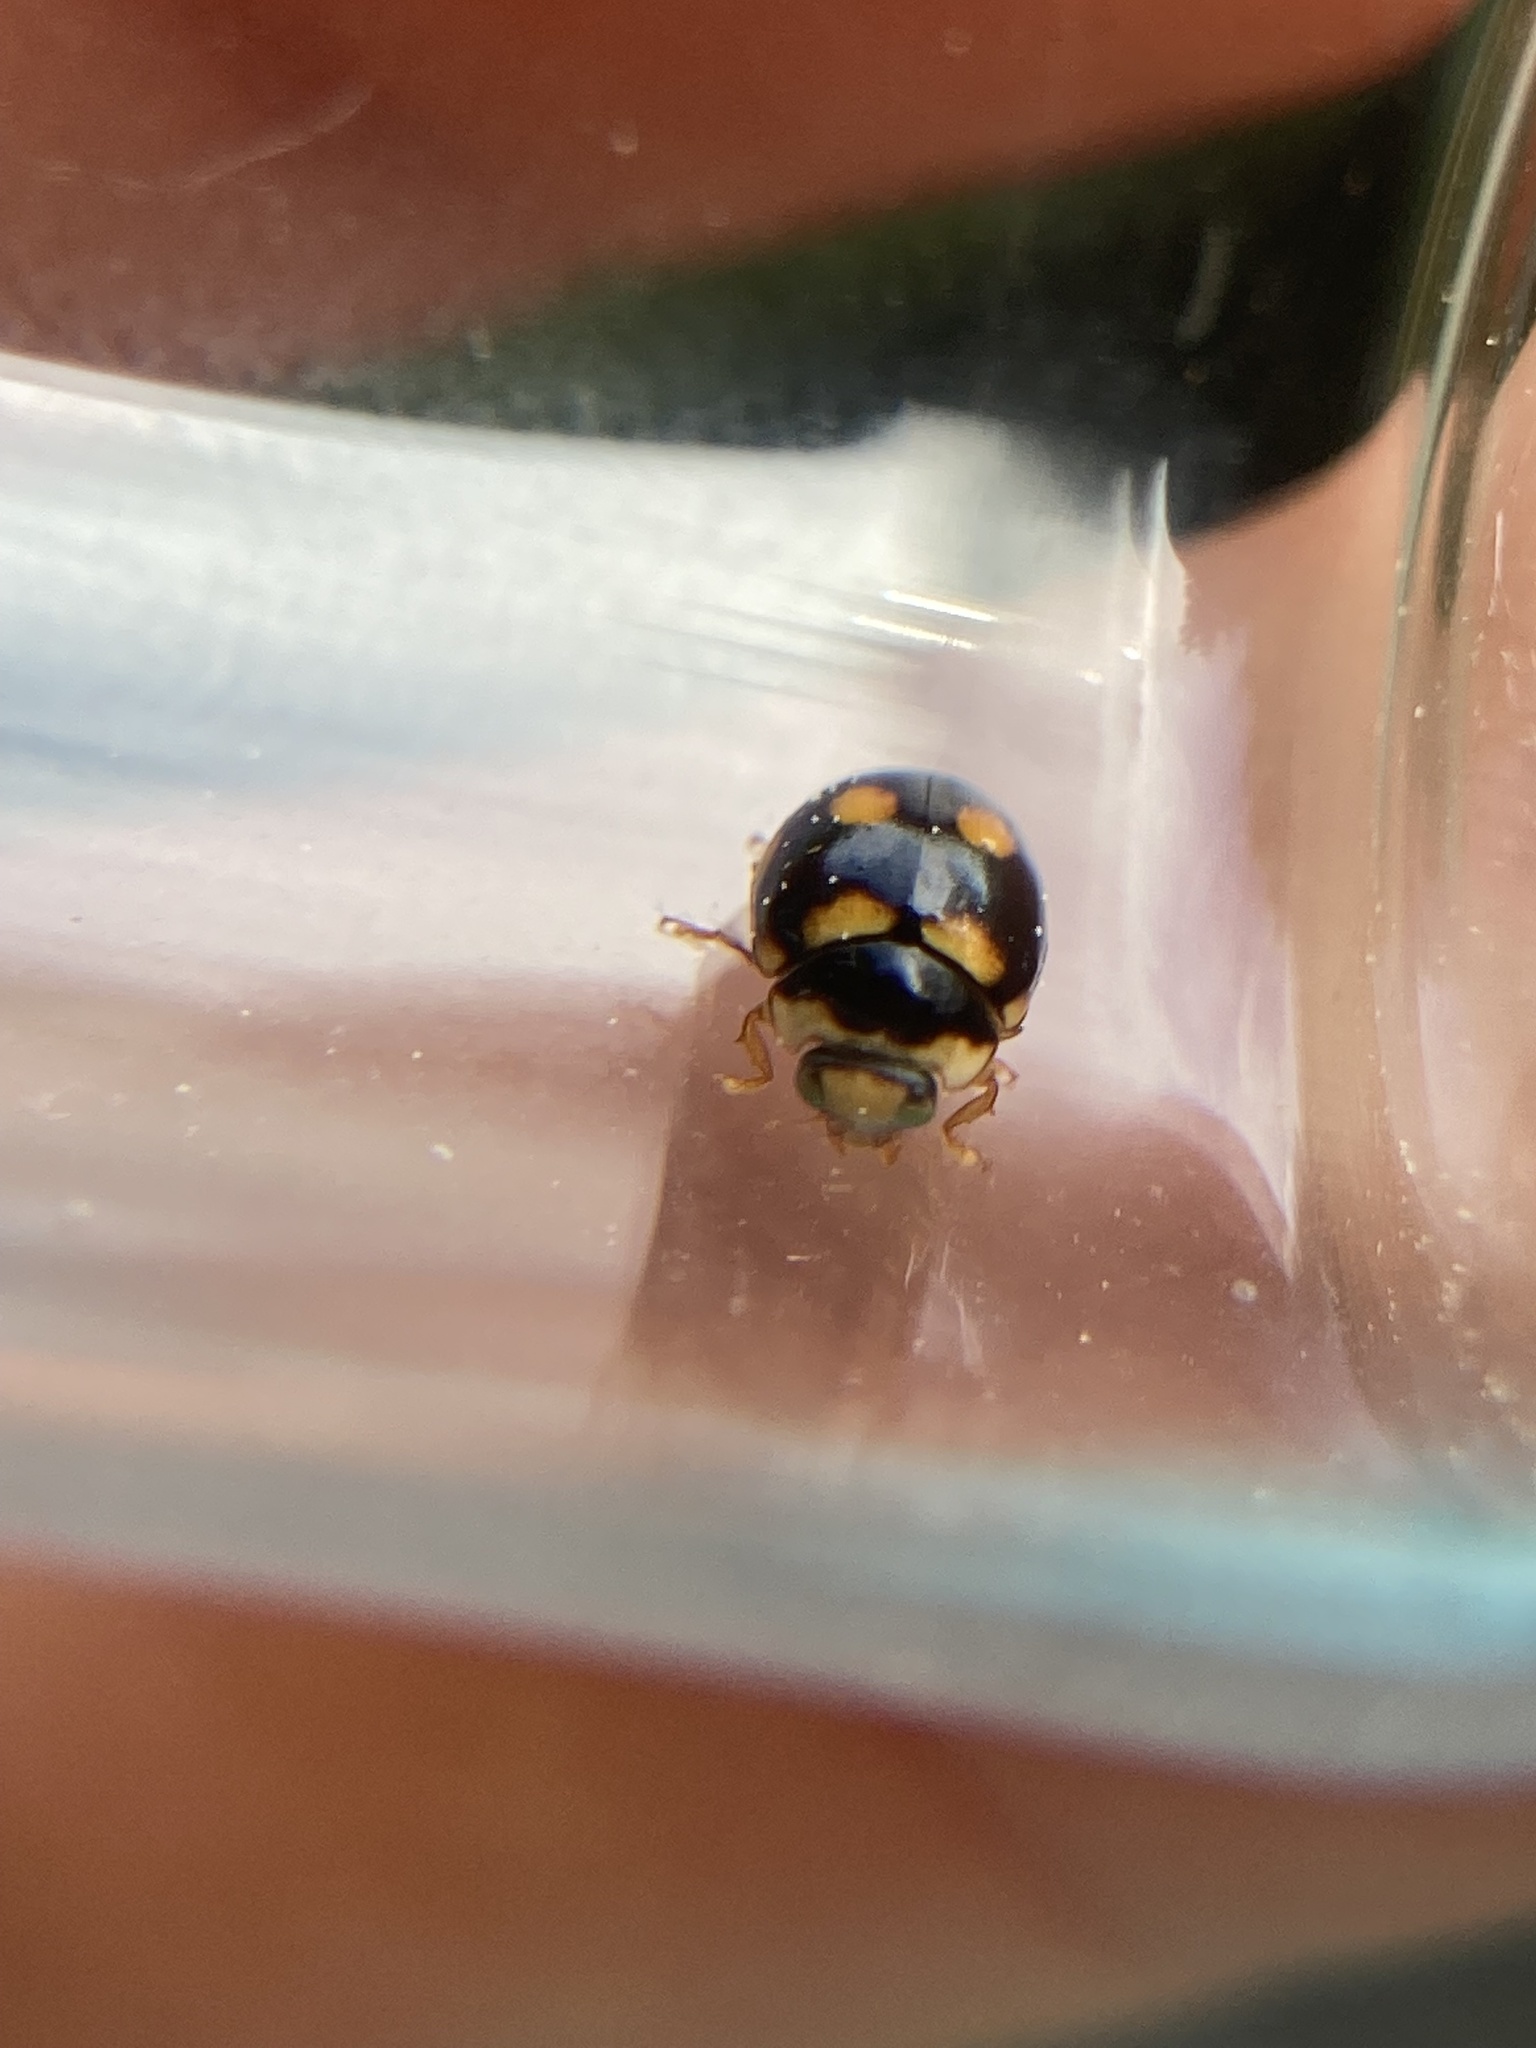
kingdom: Animalia
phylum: Arthropoda
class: Insecta
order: Coleoptera
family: Coccinellidae
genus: Brachiacantha
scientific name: Brachiacantha ursina
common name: Ursine spurleg lady beetle
